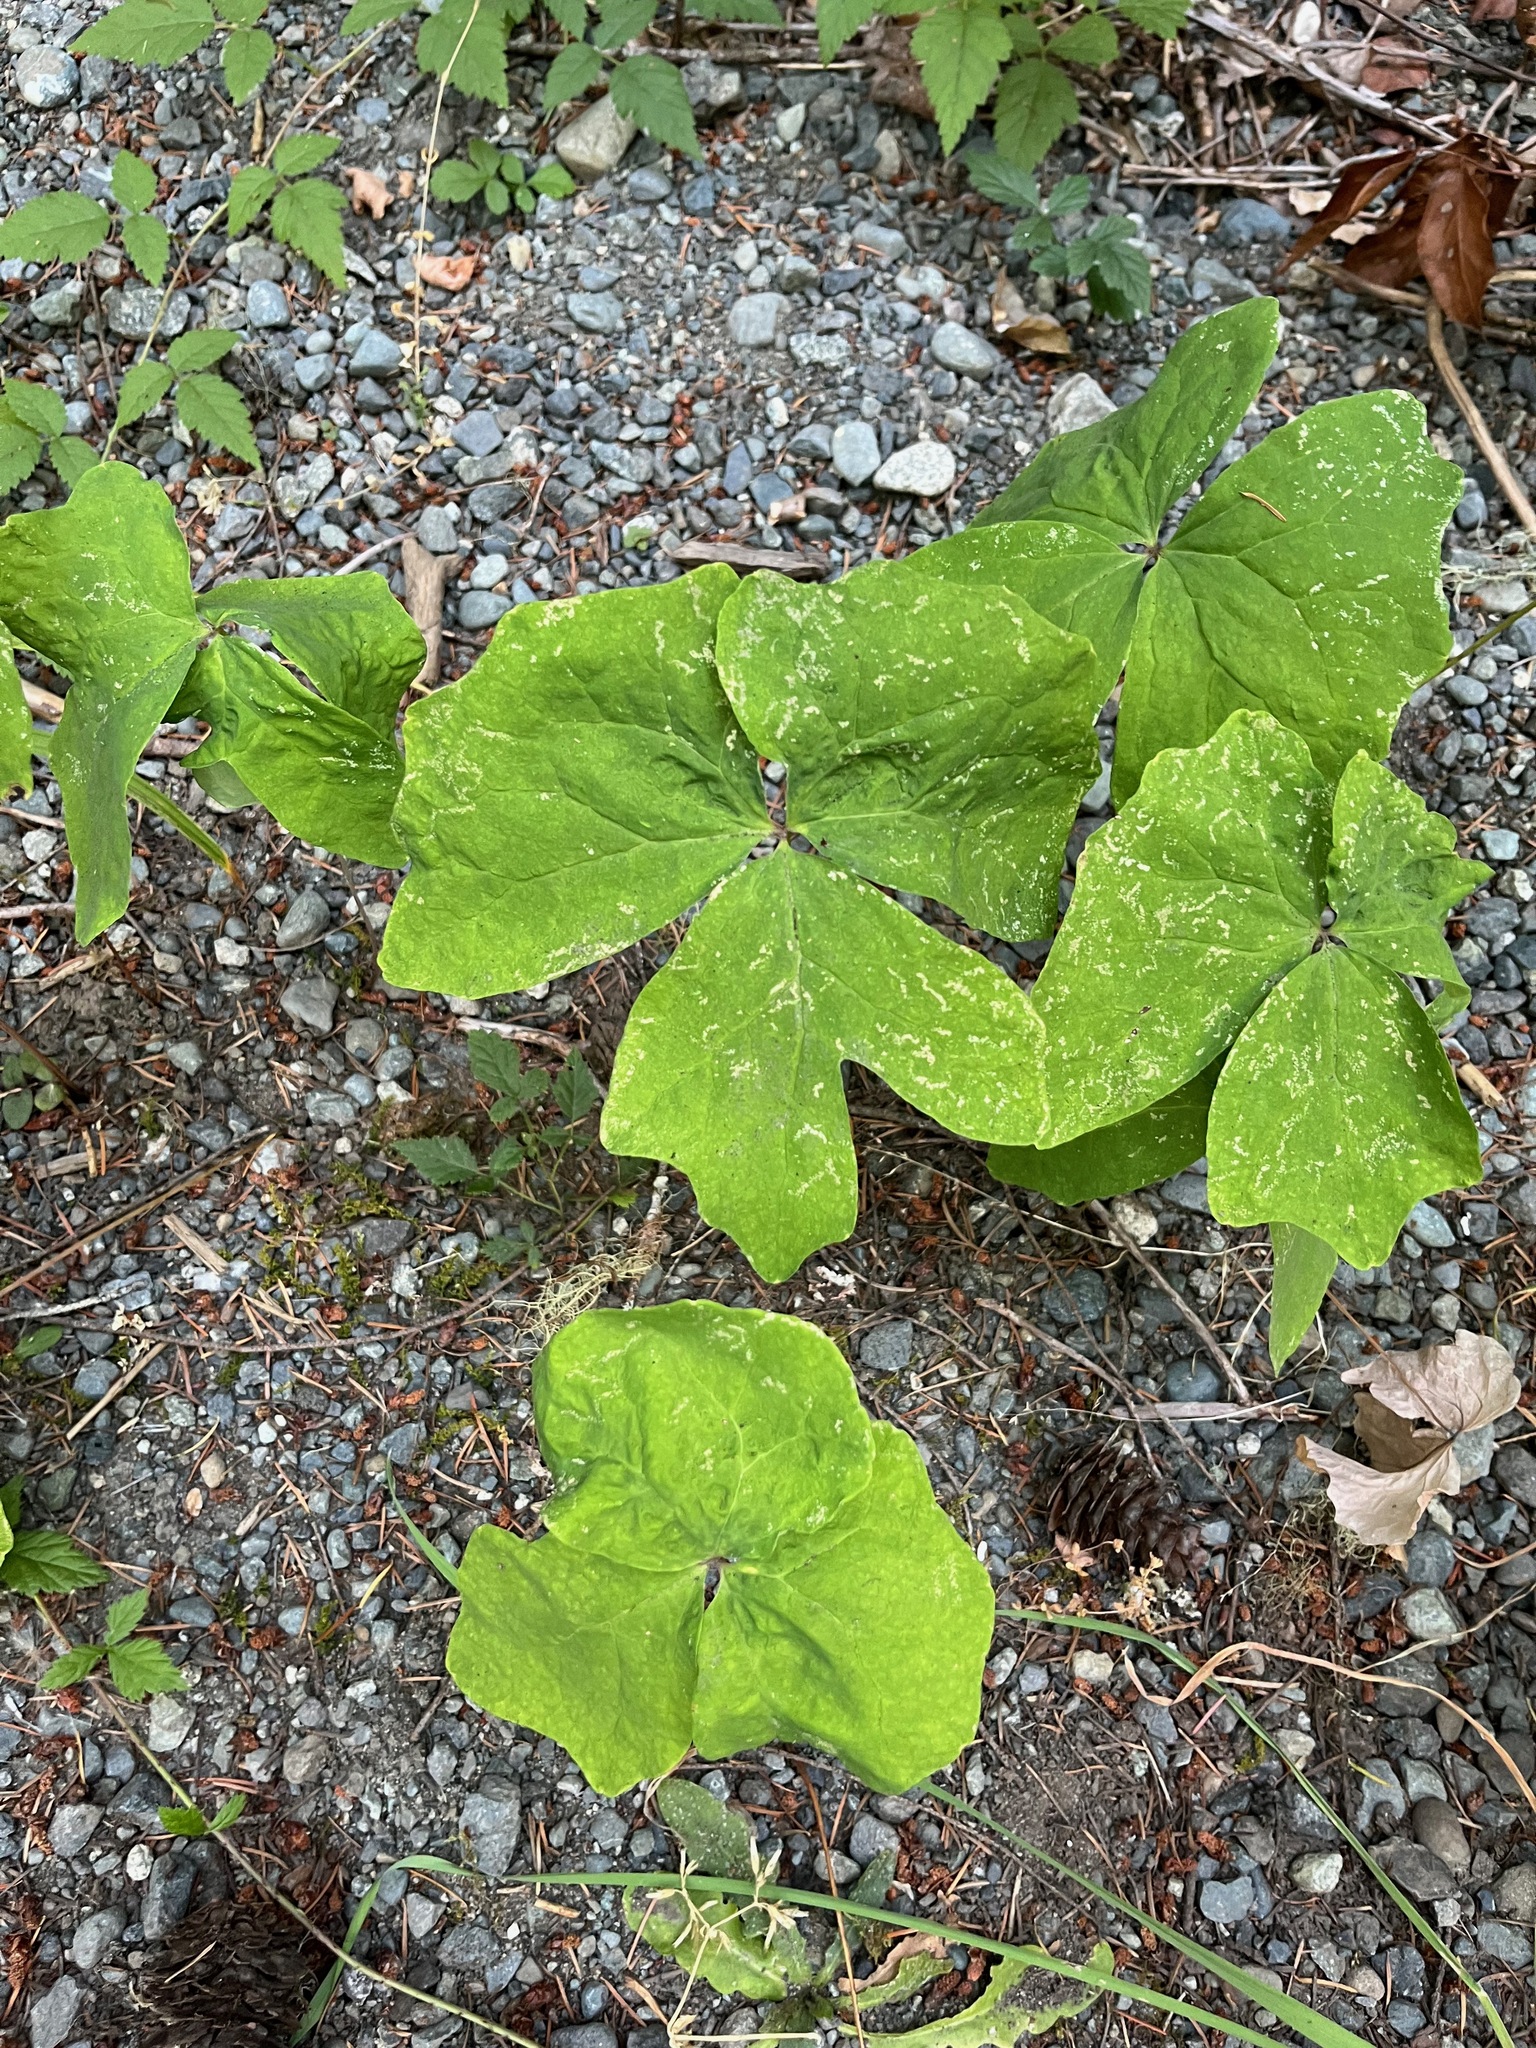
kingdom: Plantae
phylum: Tracheophyta
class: Magnoliopsida
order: Ranunculales
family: Berberidaceae
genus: Achlys
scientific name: Achlys triphylla
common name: Vanilla-leaf
